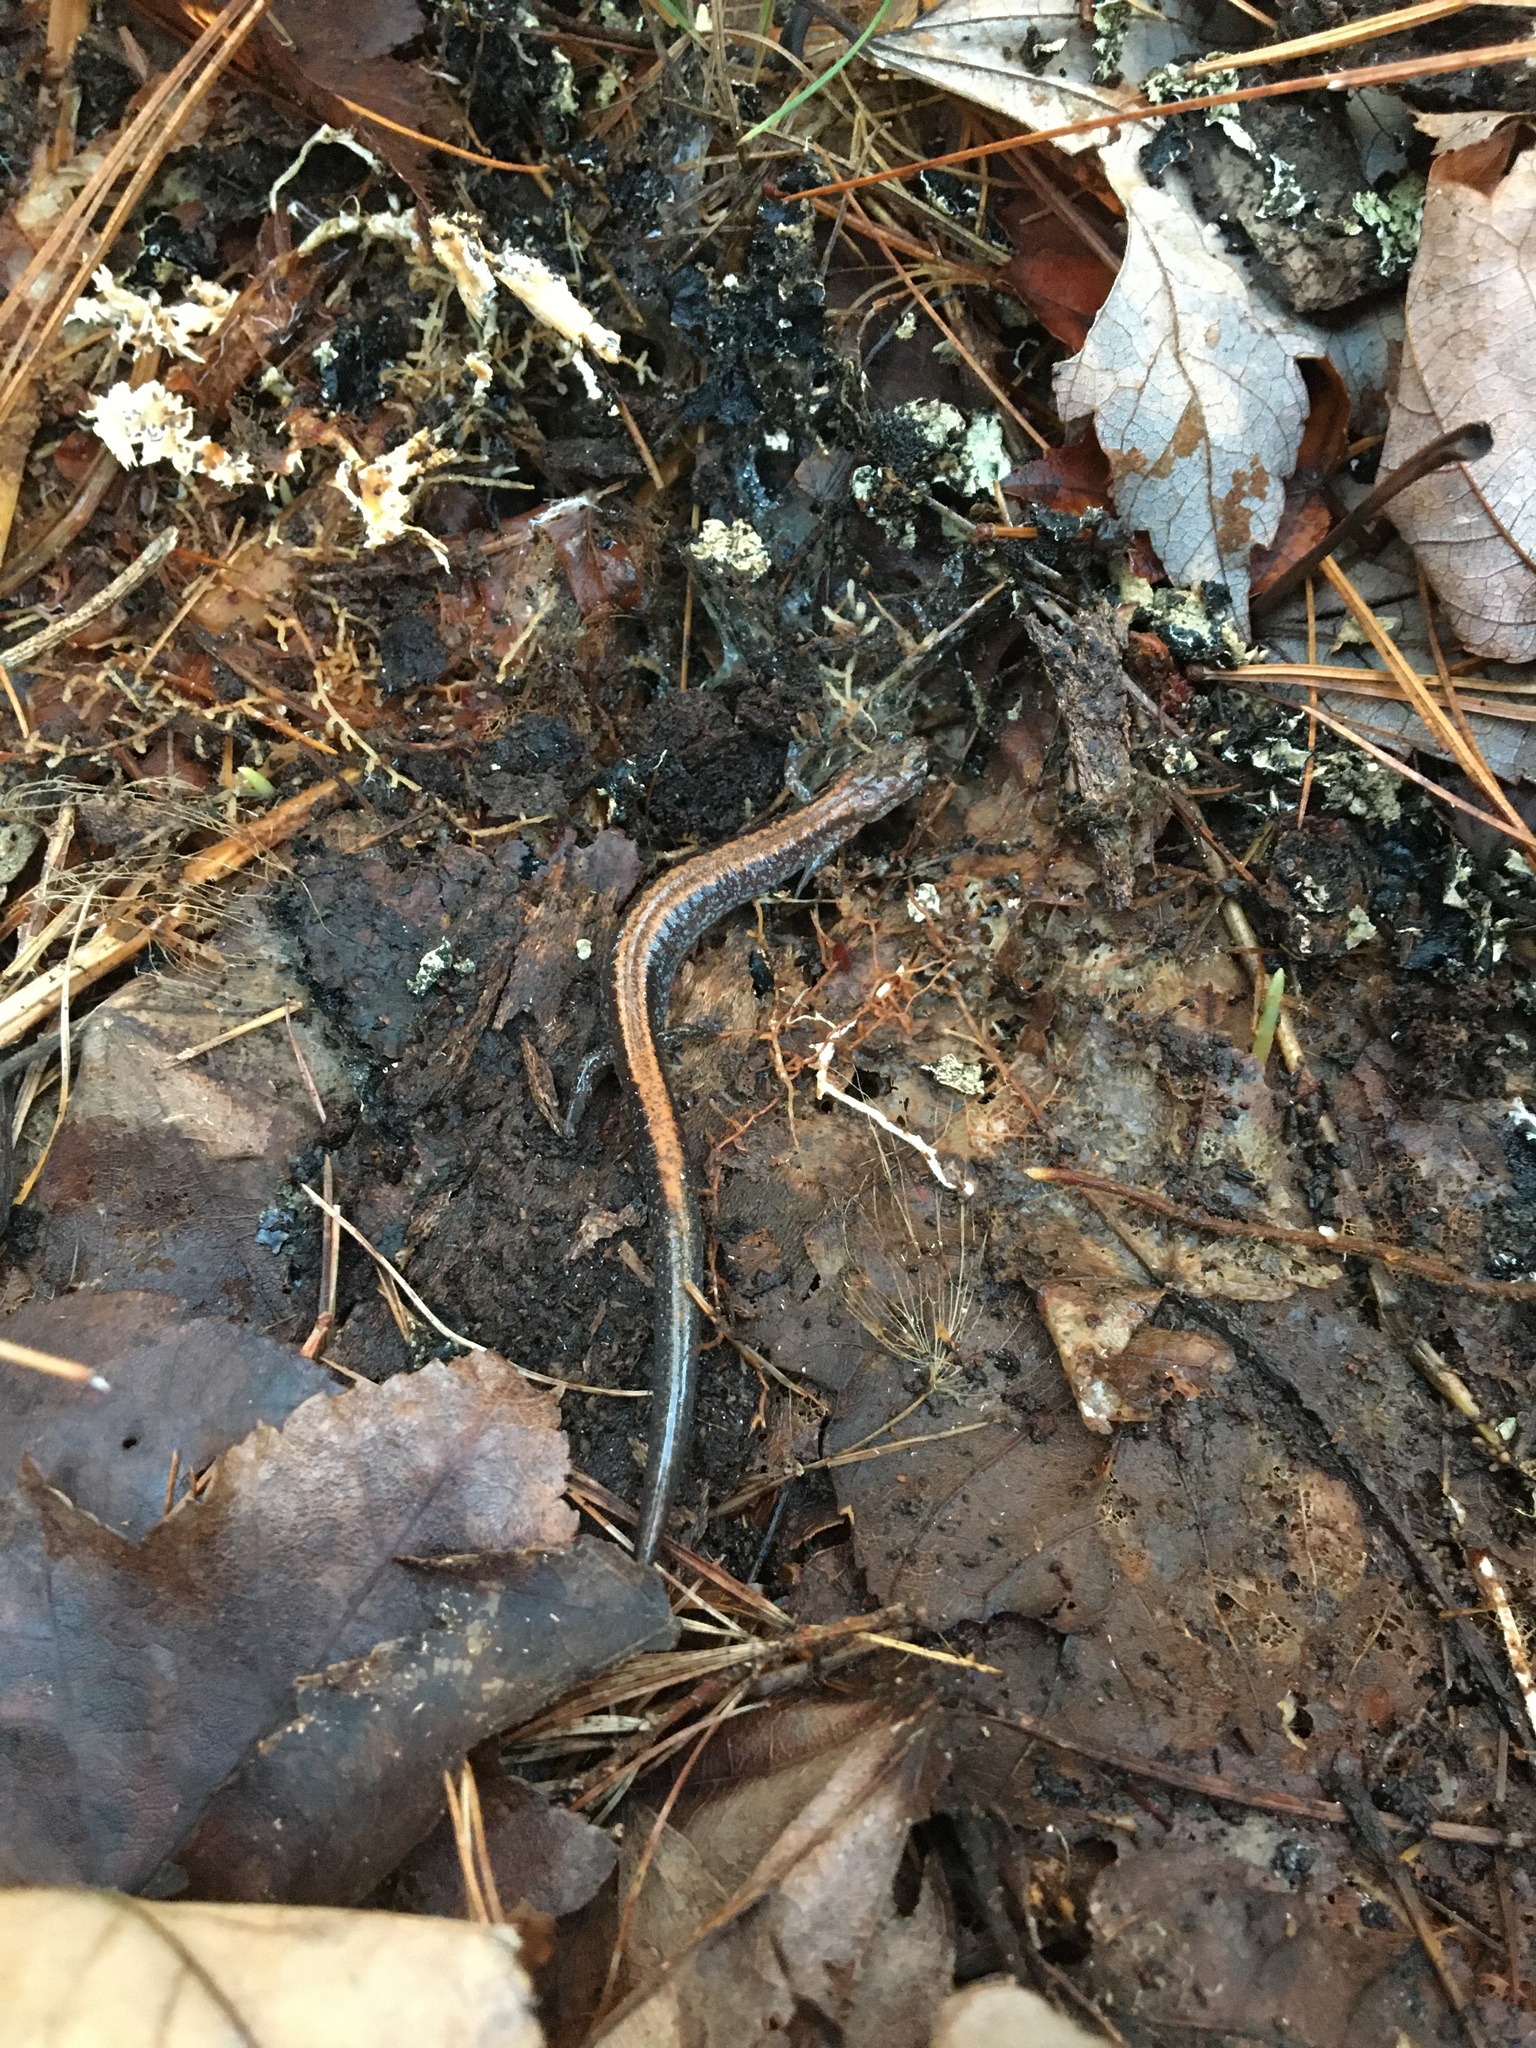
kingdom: Animalia
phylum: Chordata
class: Amphibia
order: Caudata
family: Plethodontidae
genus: Plethodon
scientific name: Plethodon cinereus
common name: Redback salamander
